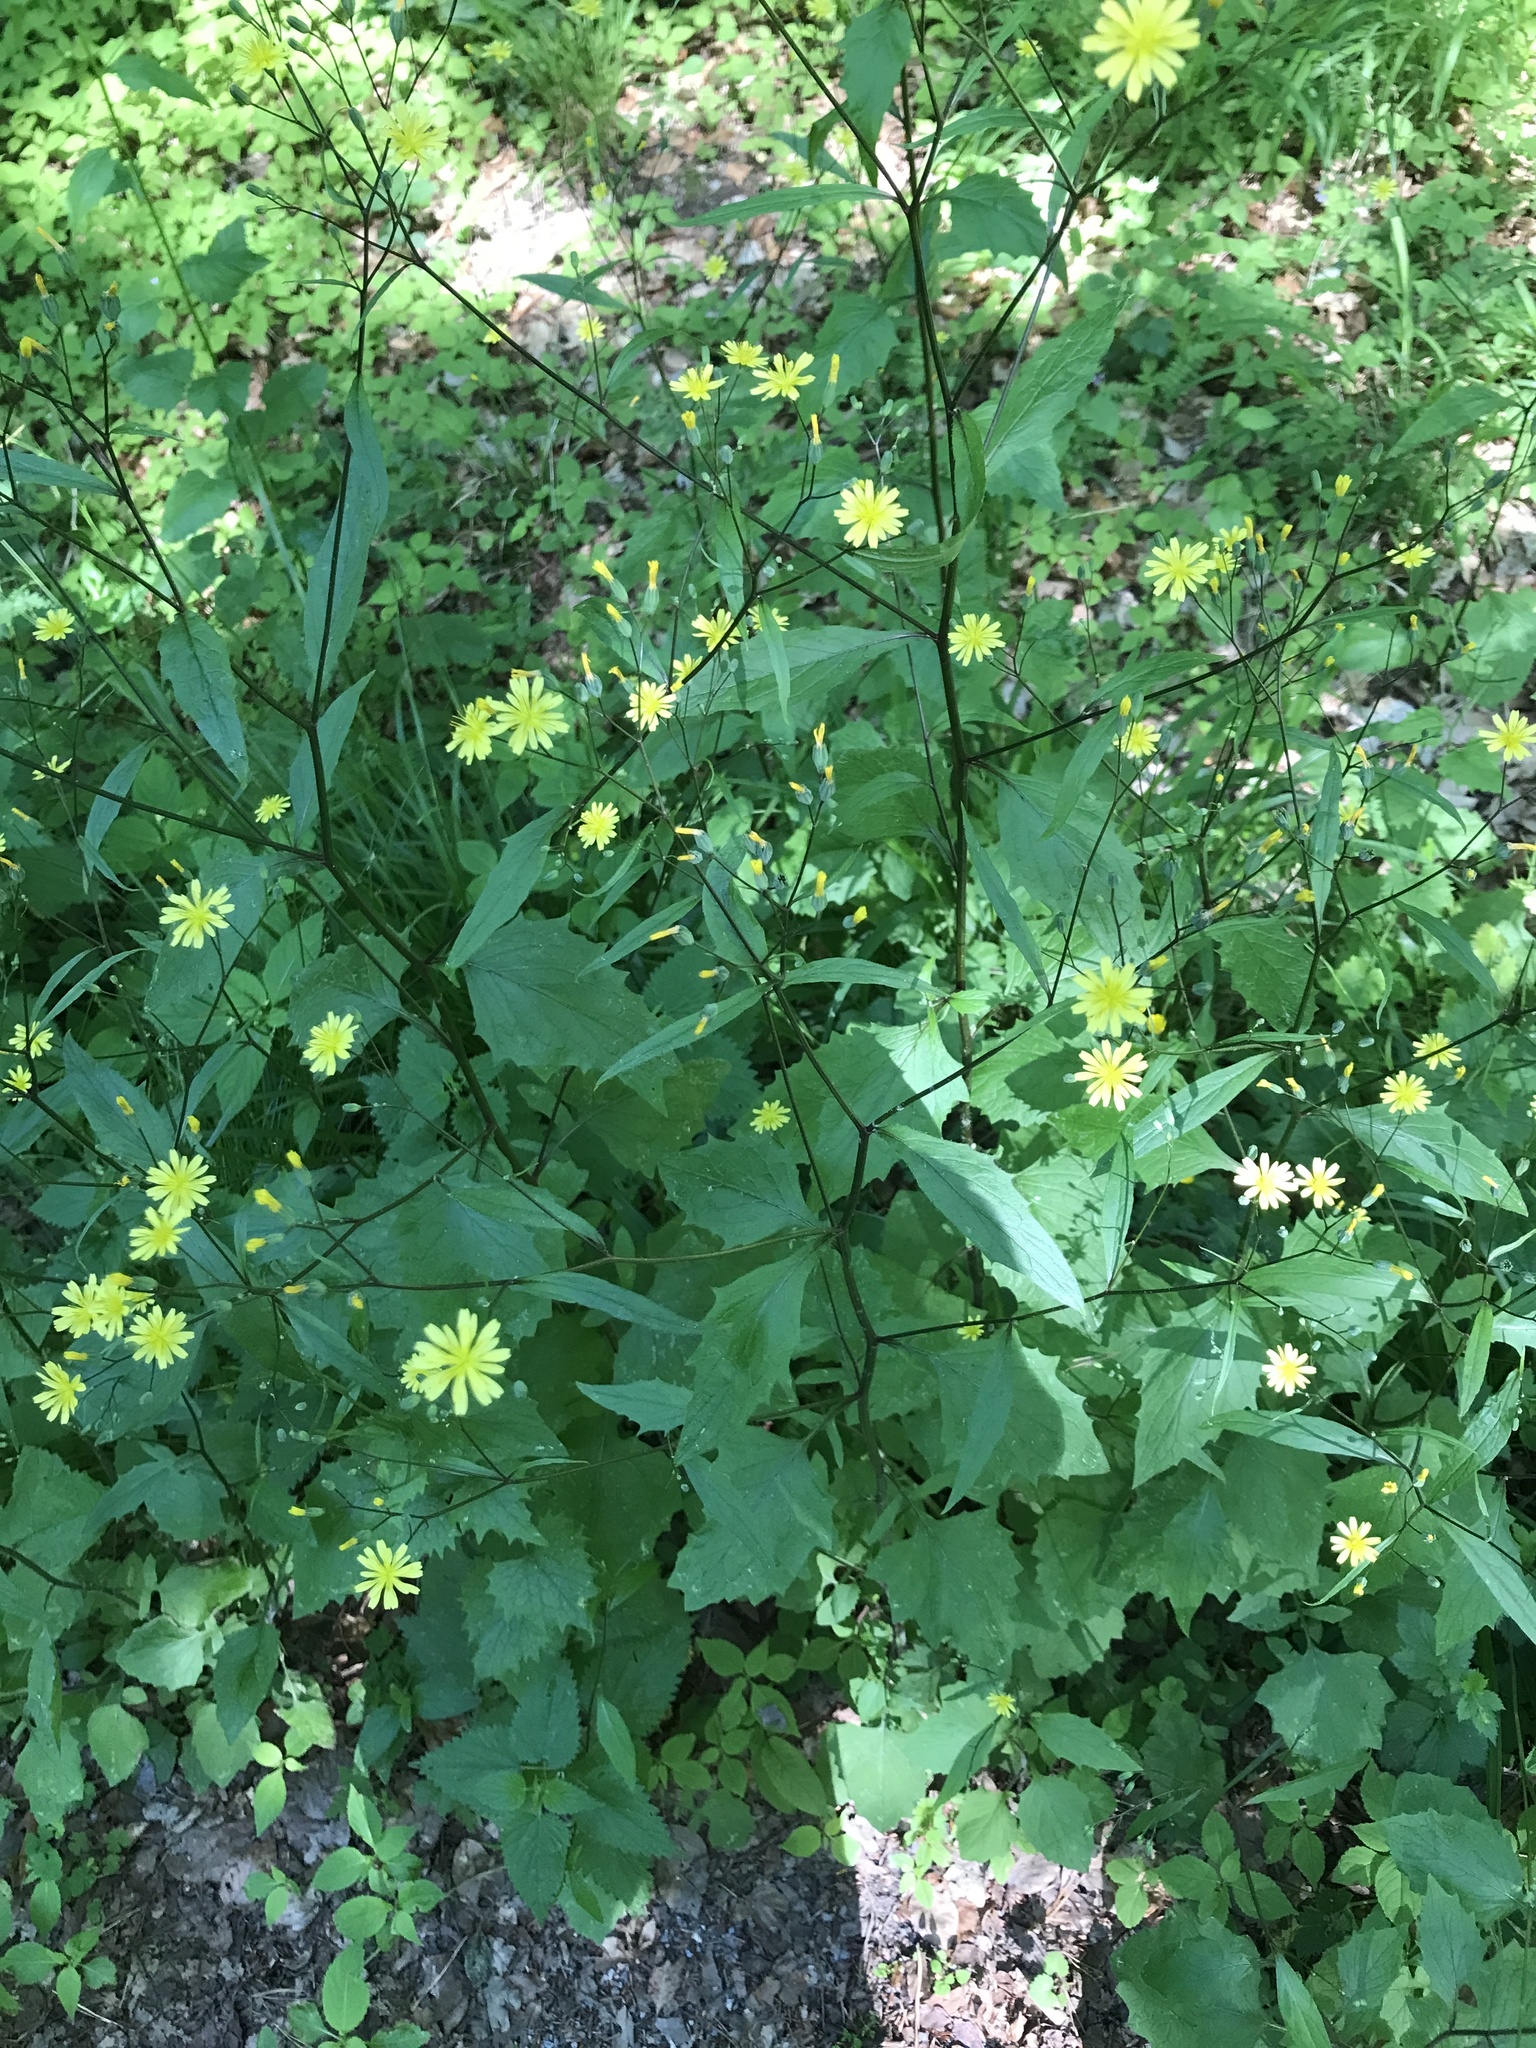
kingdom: Plantae
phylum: Tracheophyta
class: Magnoliopsida
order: Asterales
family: Asteraceae
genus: Lapsana
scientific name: Lapsana communis
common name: Nipplewort
